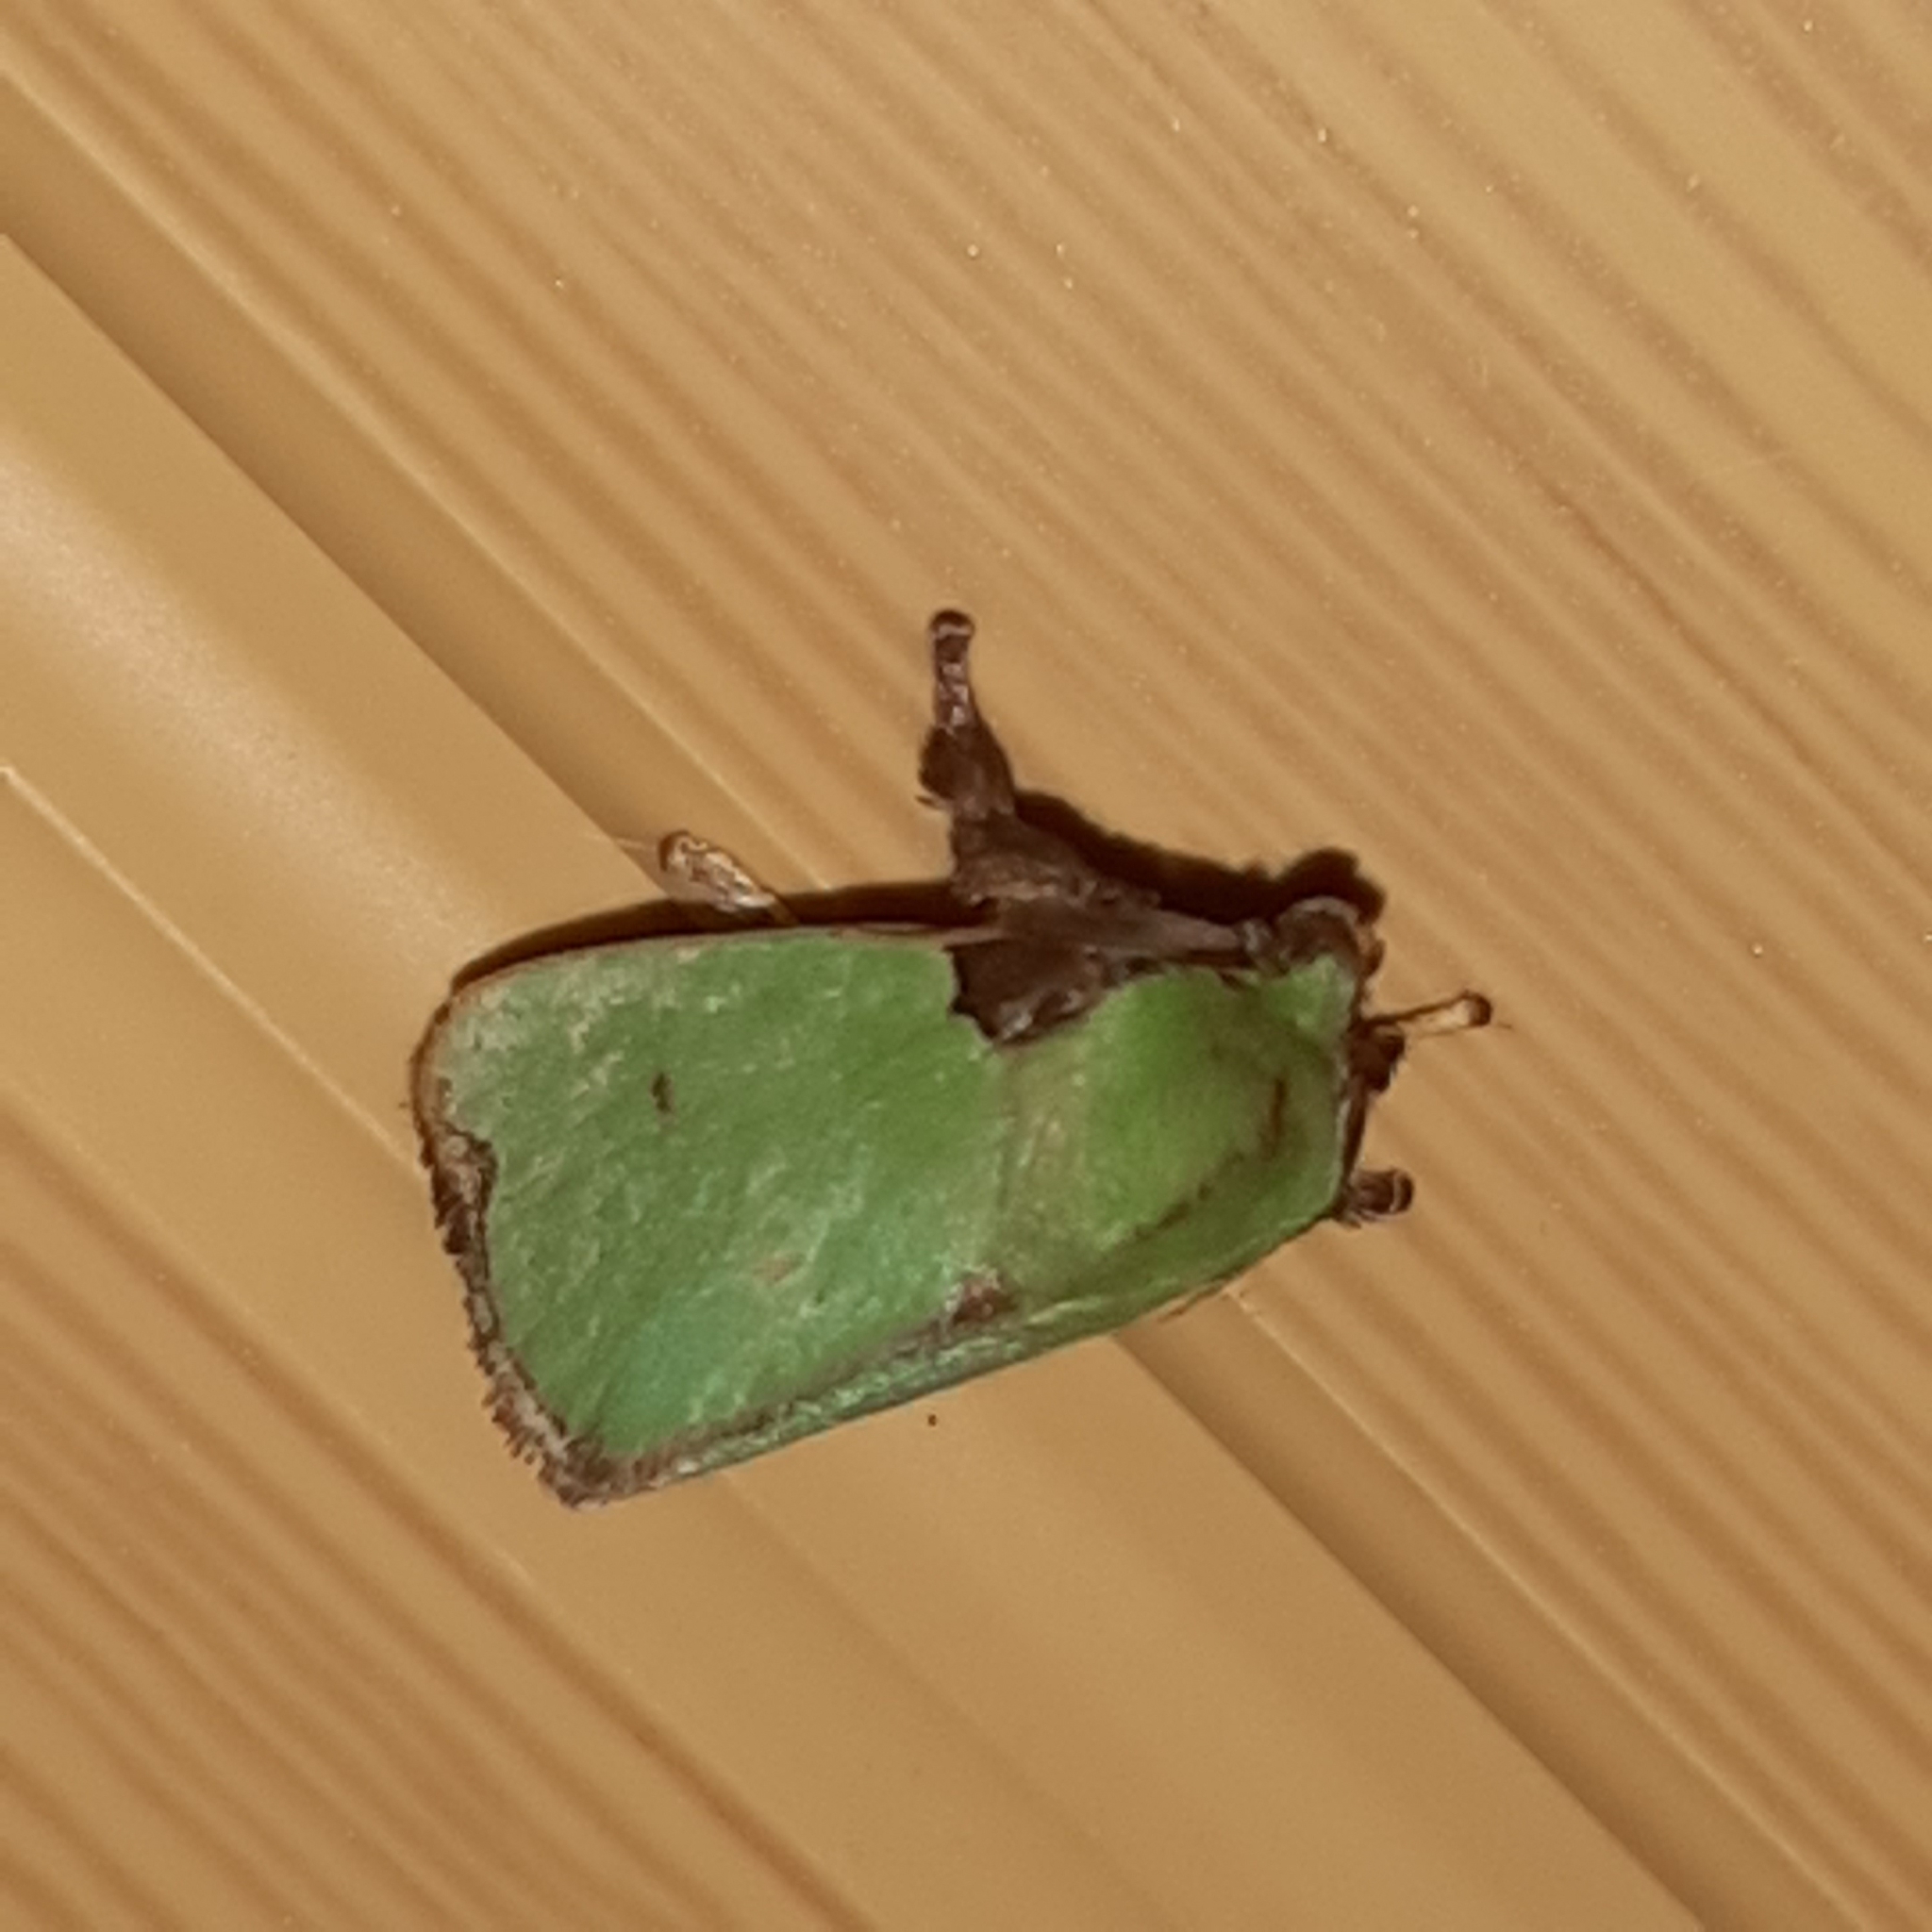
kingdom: Animalia
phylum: Arthropoda
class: Insecta
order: Lepidoptera
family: Limacodidae
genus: Parasa
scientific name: Parasa wellesca
